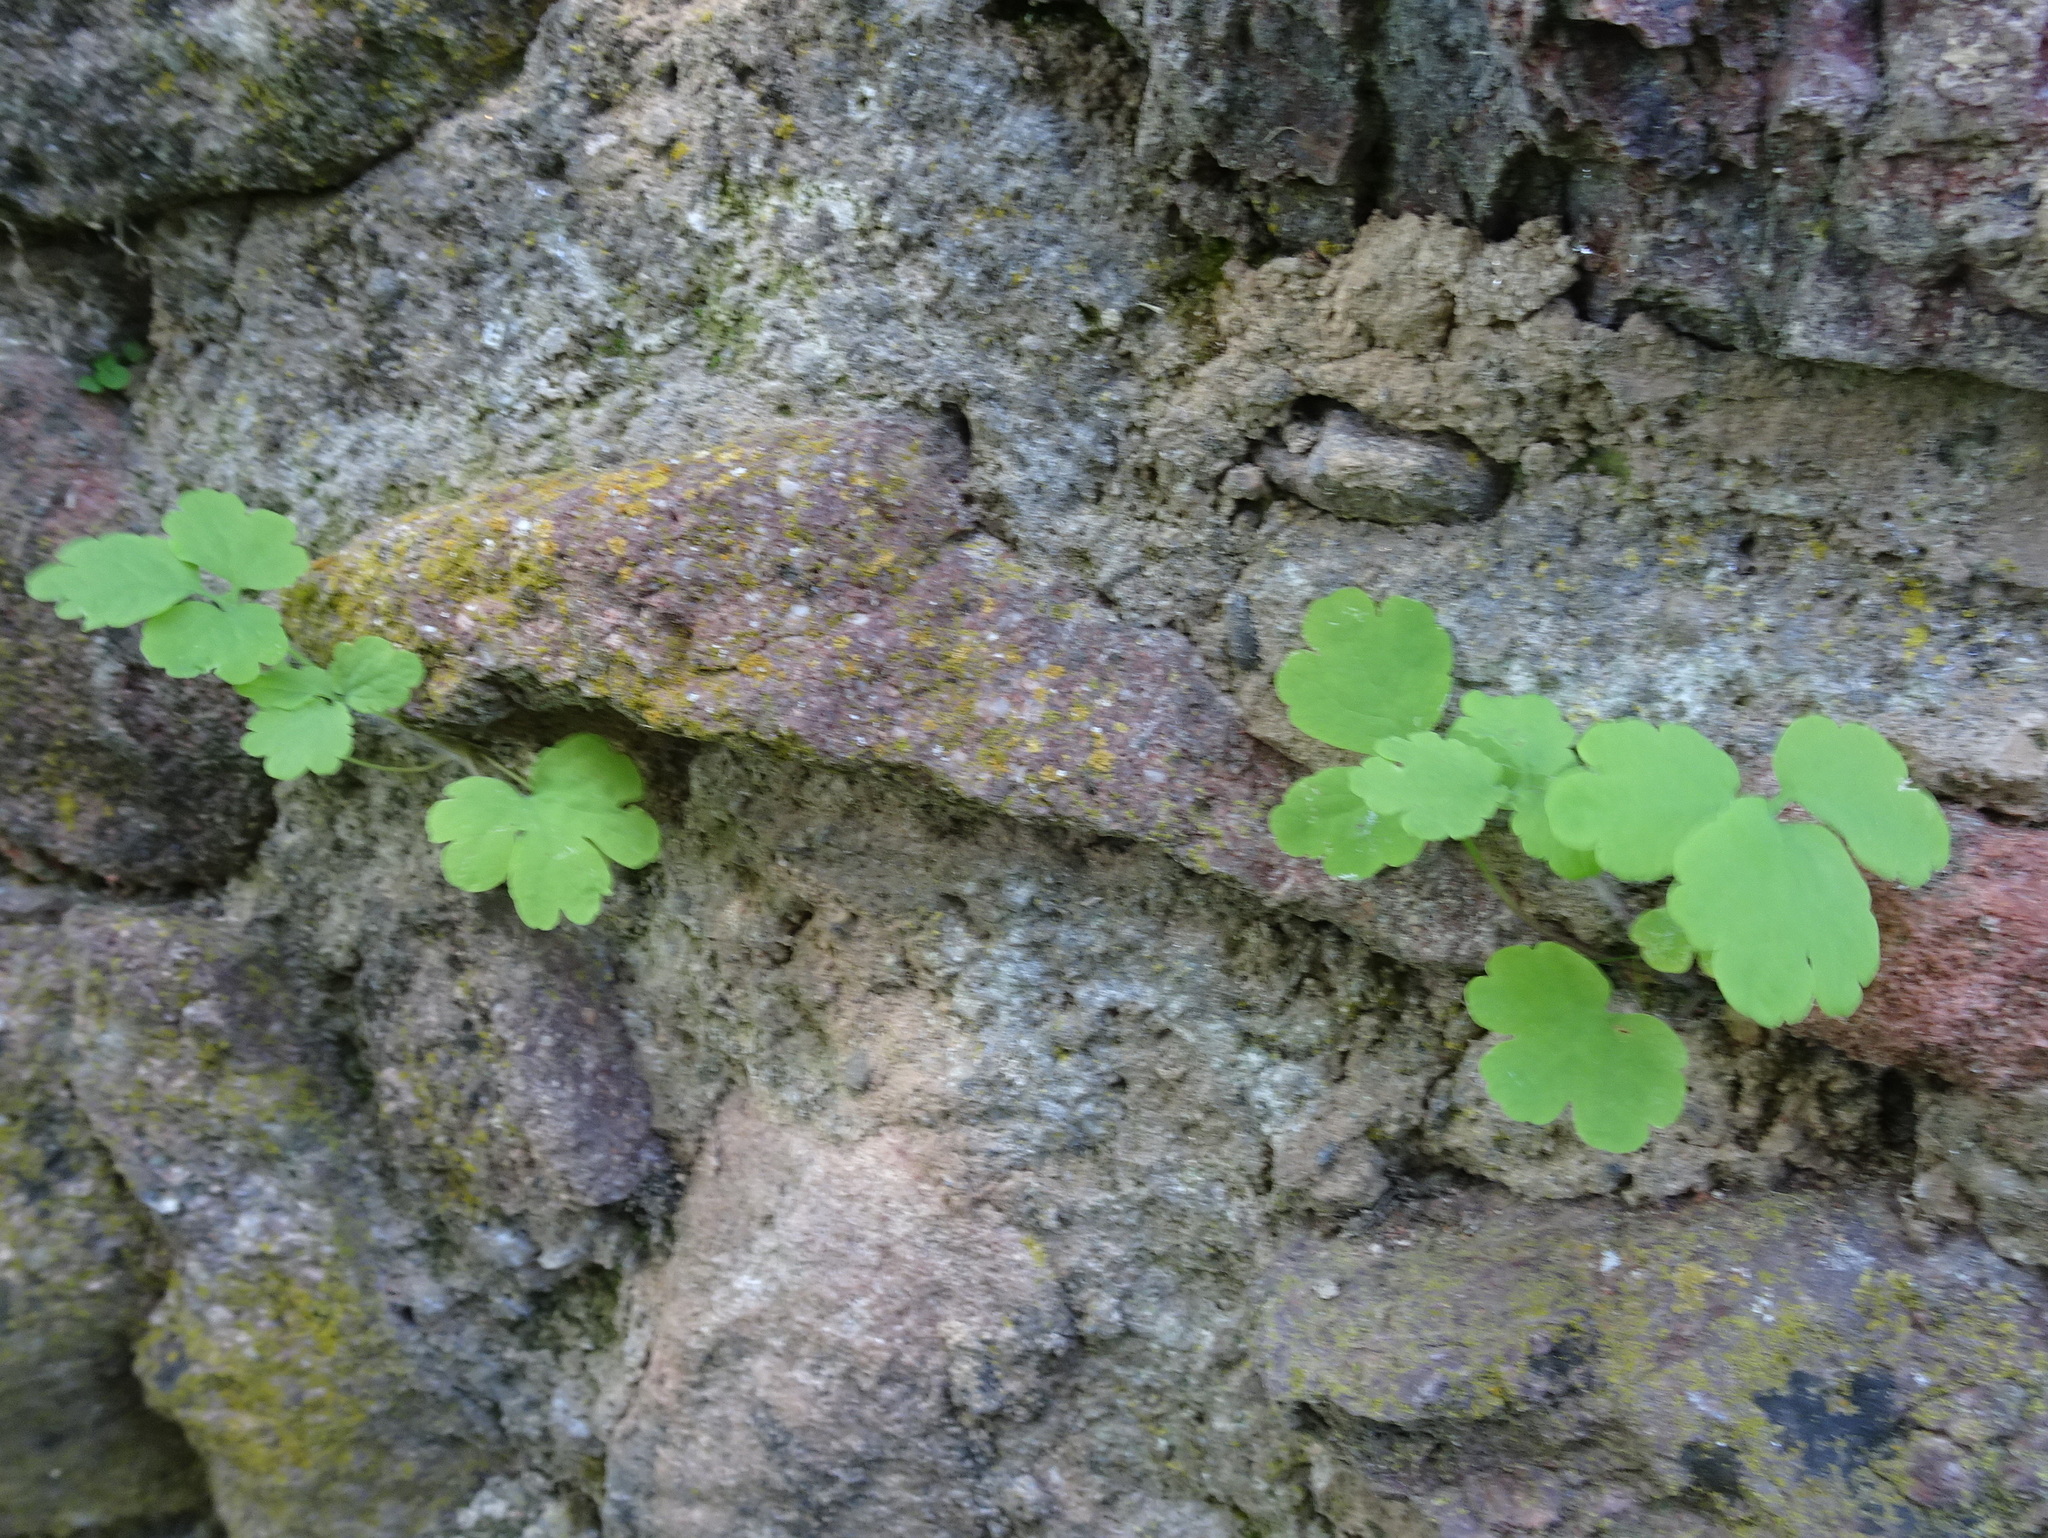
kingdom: Plantae
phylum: Tracheophyta
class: Magnoliopsida
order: Ranunculales
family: Papaveraceae
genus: Chelidonium
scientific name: Chelidonium majus
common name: Greater celandine
